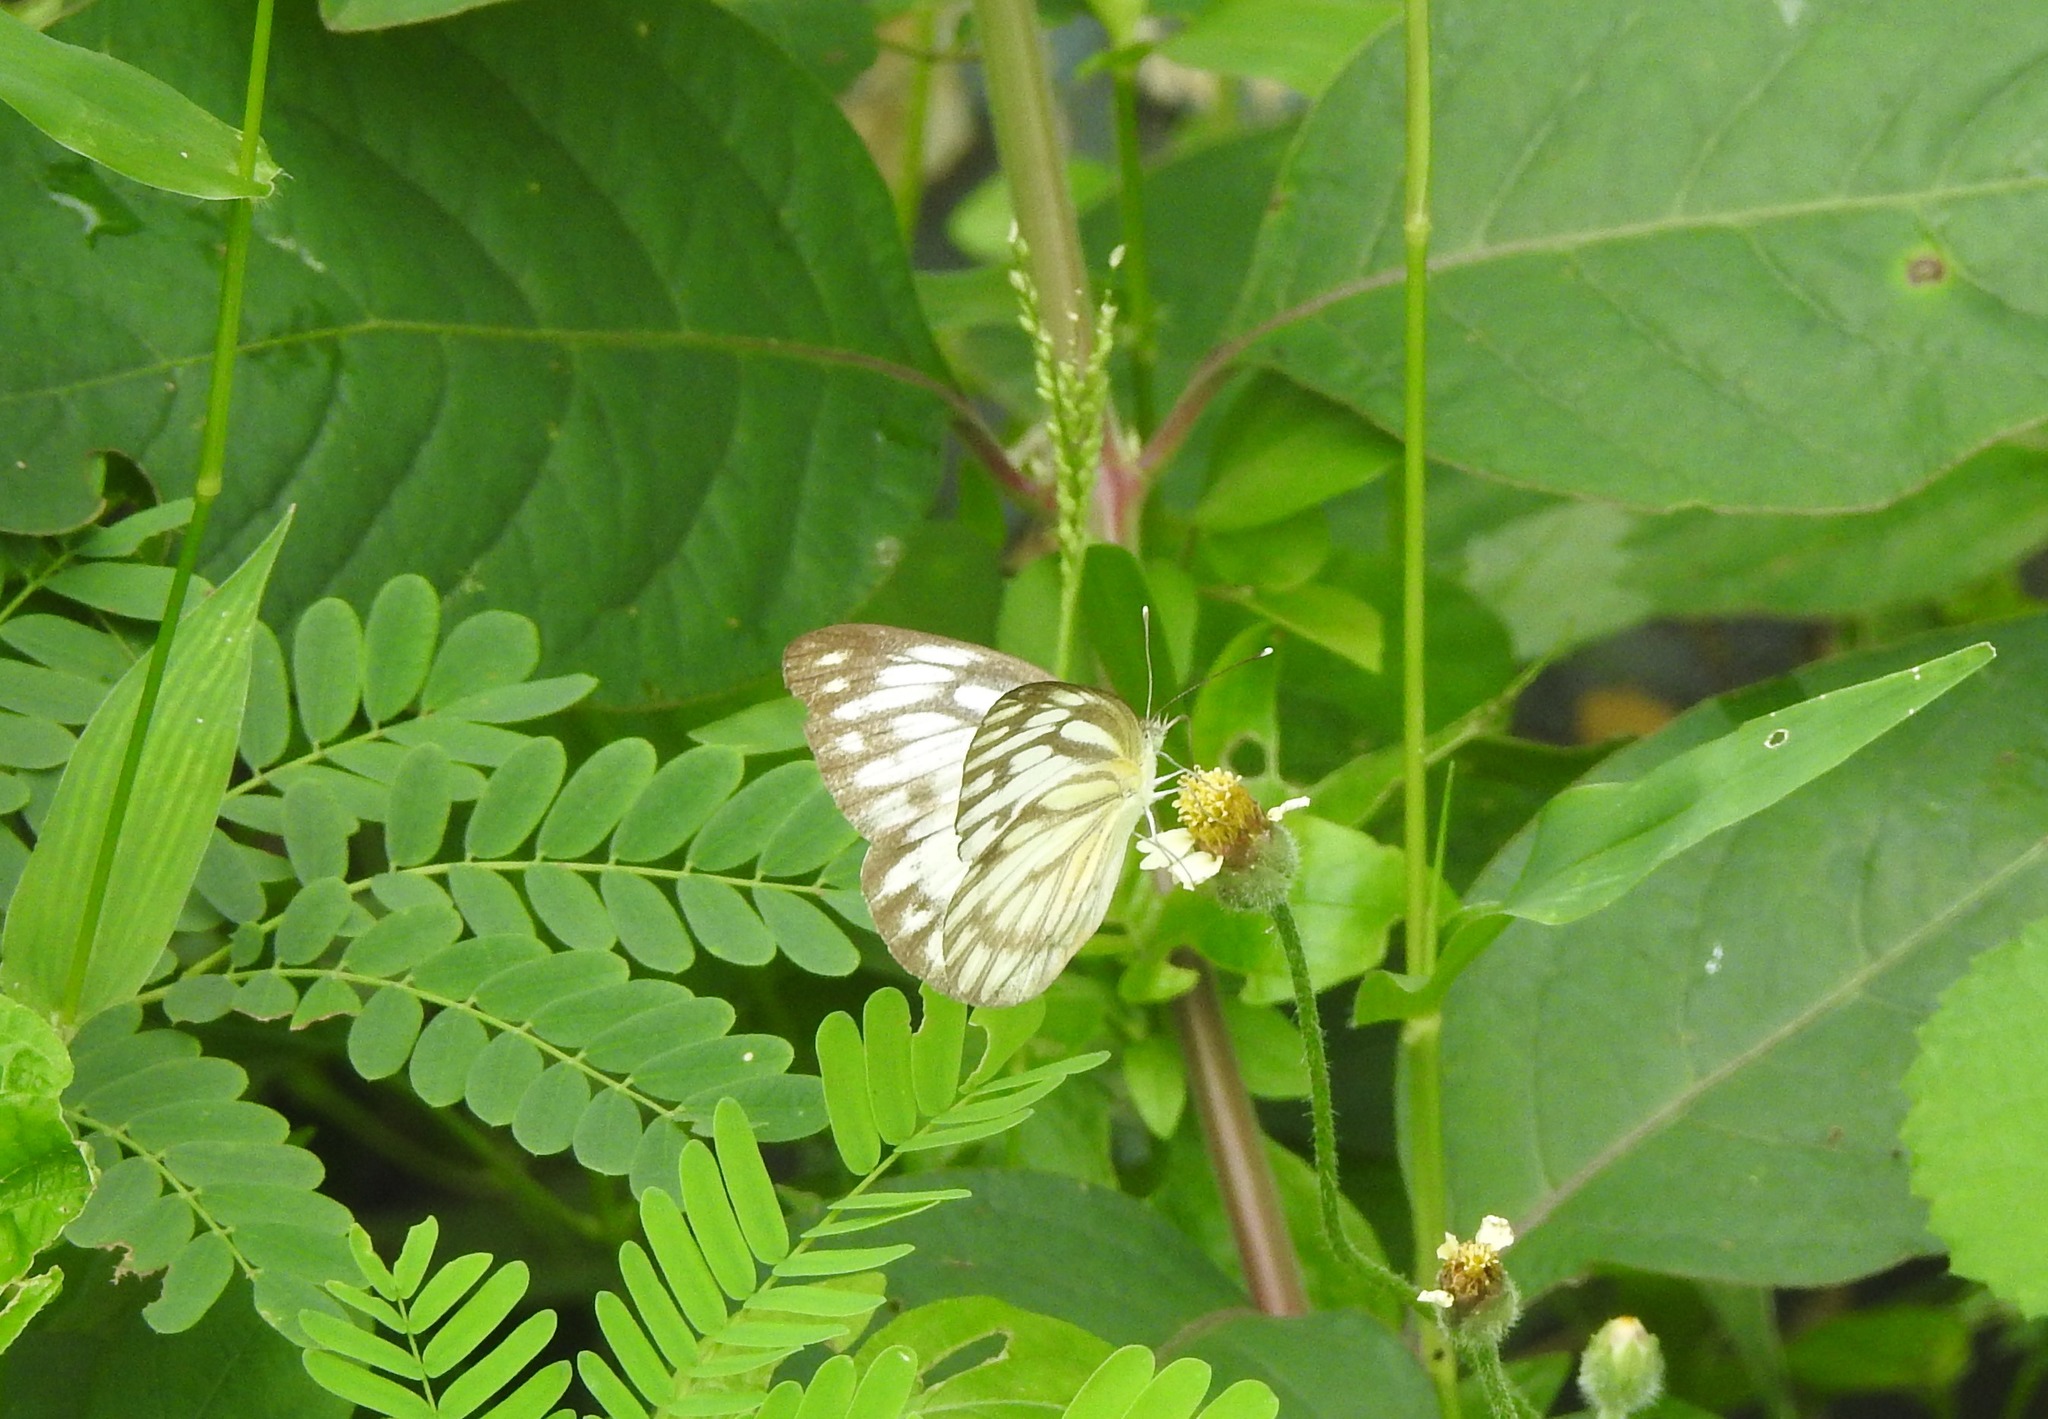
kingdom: Animalia
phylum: Arthropoda
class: Insecta
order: Lepidoptera
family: Pieridae
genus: Cepora
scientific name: Cepora nerissa
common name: Common gull
